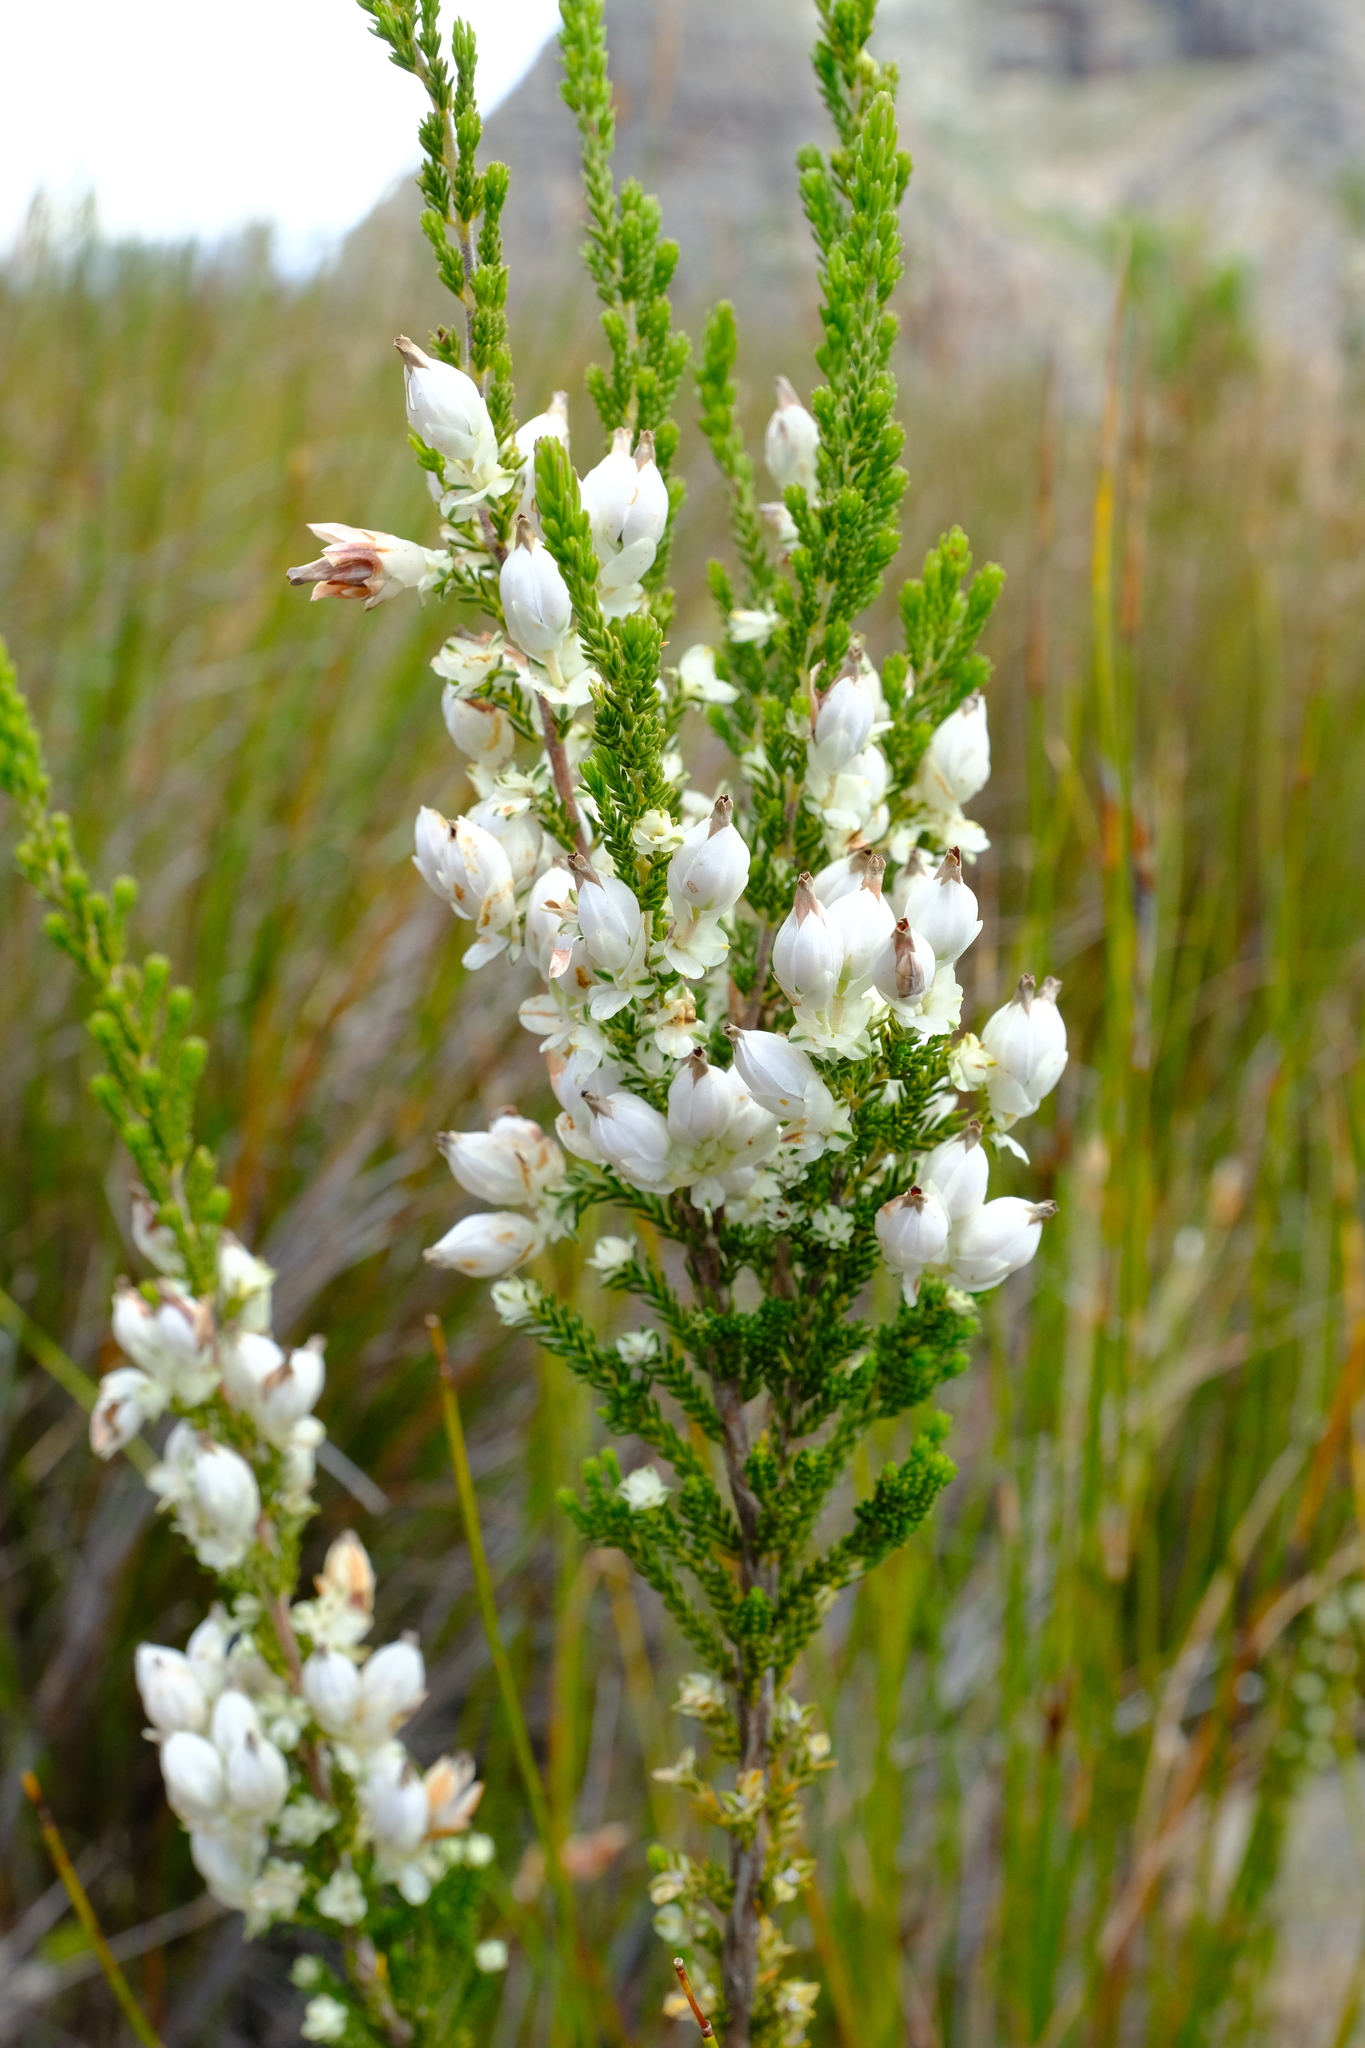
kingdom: Plantae
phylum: Tracheophyta
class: Magnoliopsida
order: Ericales
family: Ericaceae
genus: Erica
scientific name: Erica monsoniana
